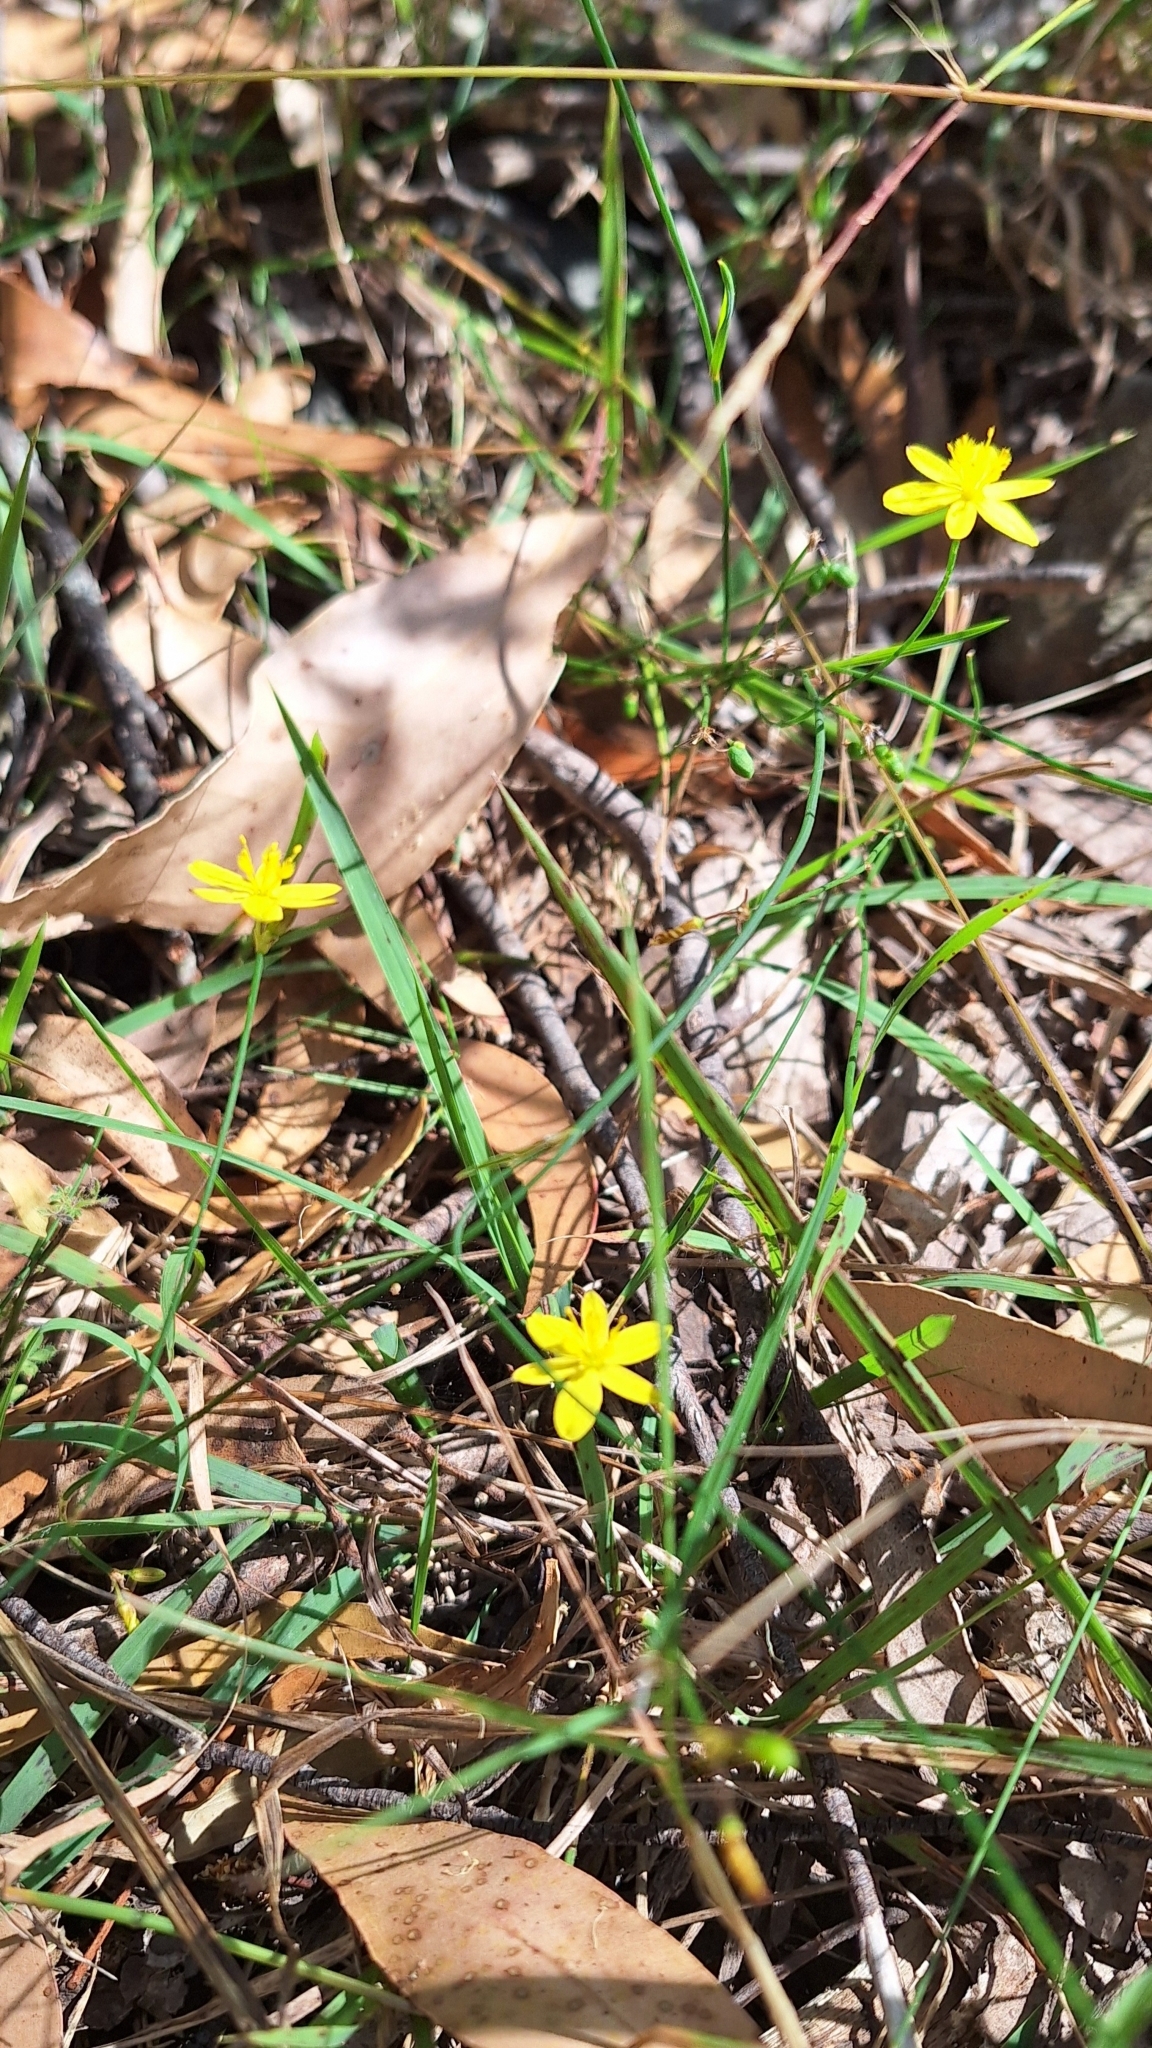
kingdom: Plantae
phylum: Tracheophyta
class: Liliopsida
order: Asparagales
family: Asphodelaceae
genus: Tricoryne
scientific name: Tricoryne elatior
